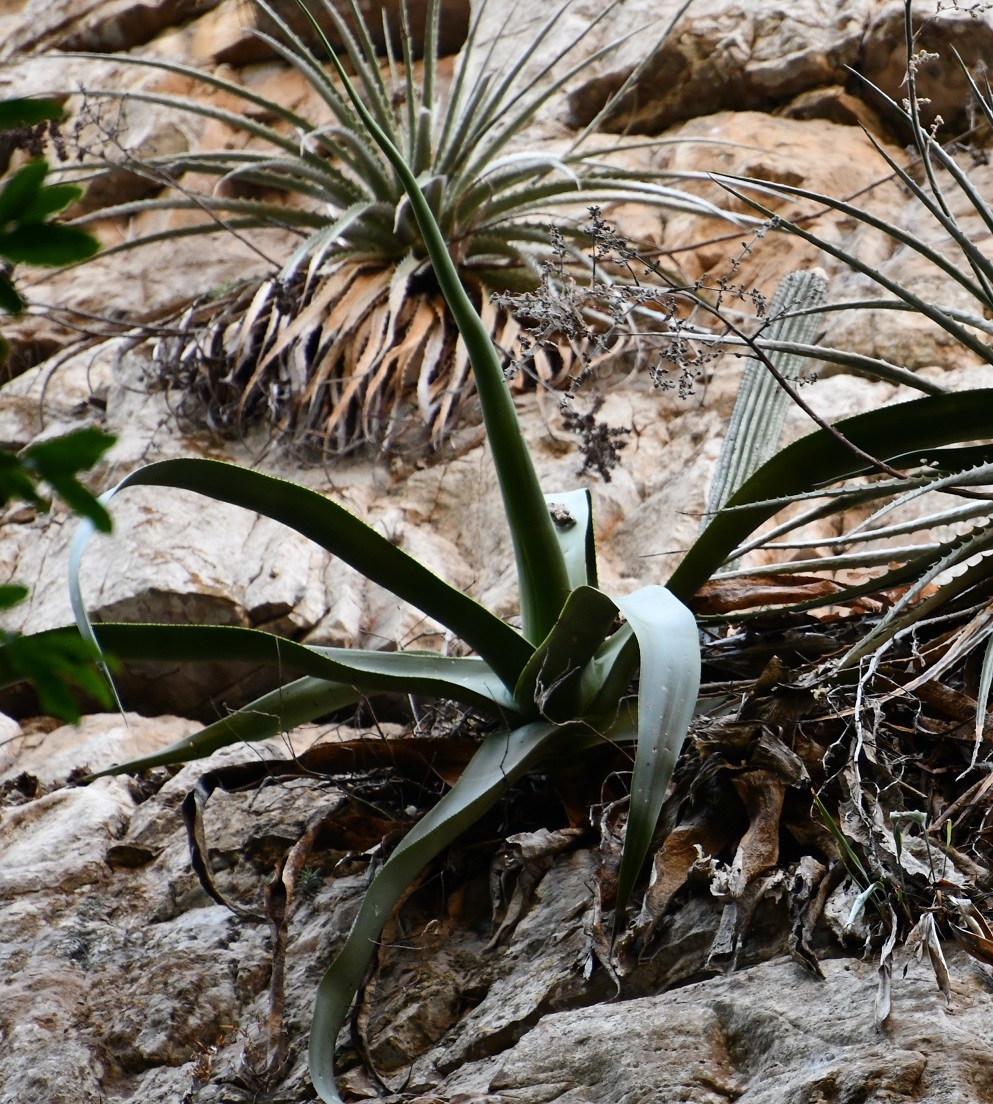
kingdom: Plantae
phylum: Tracheophyta
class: Liliopsida
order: Asparagales
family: Asparagaceae
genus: Agave
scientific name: Agave kewensis
